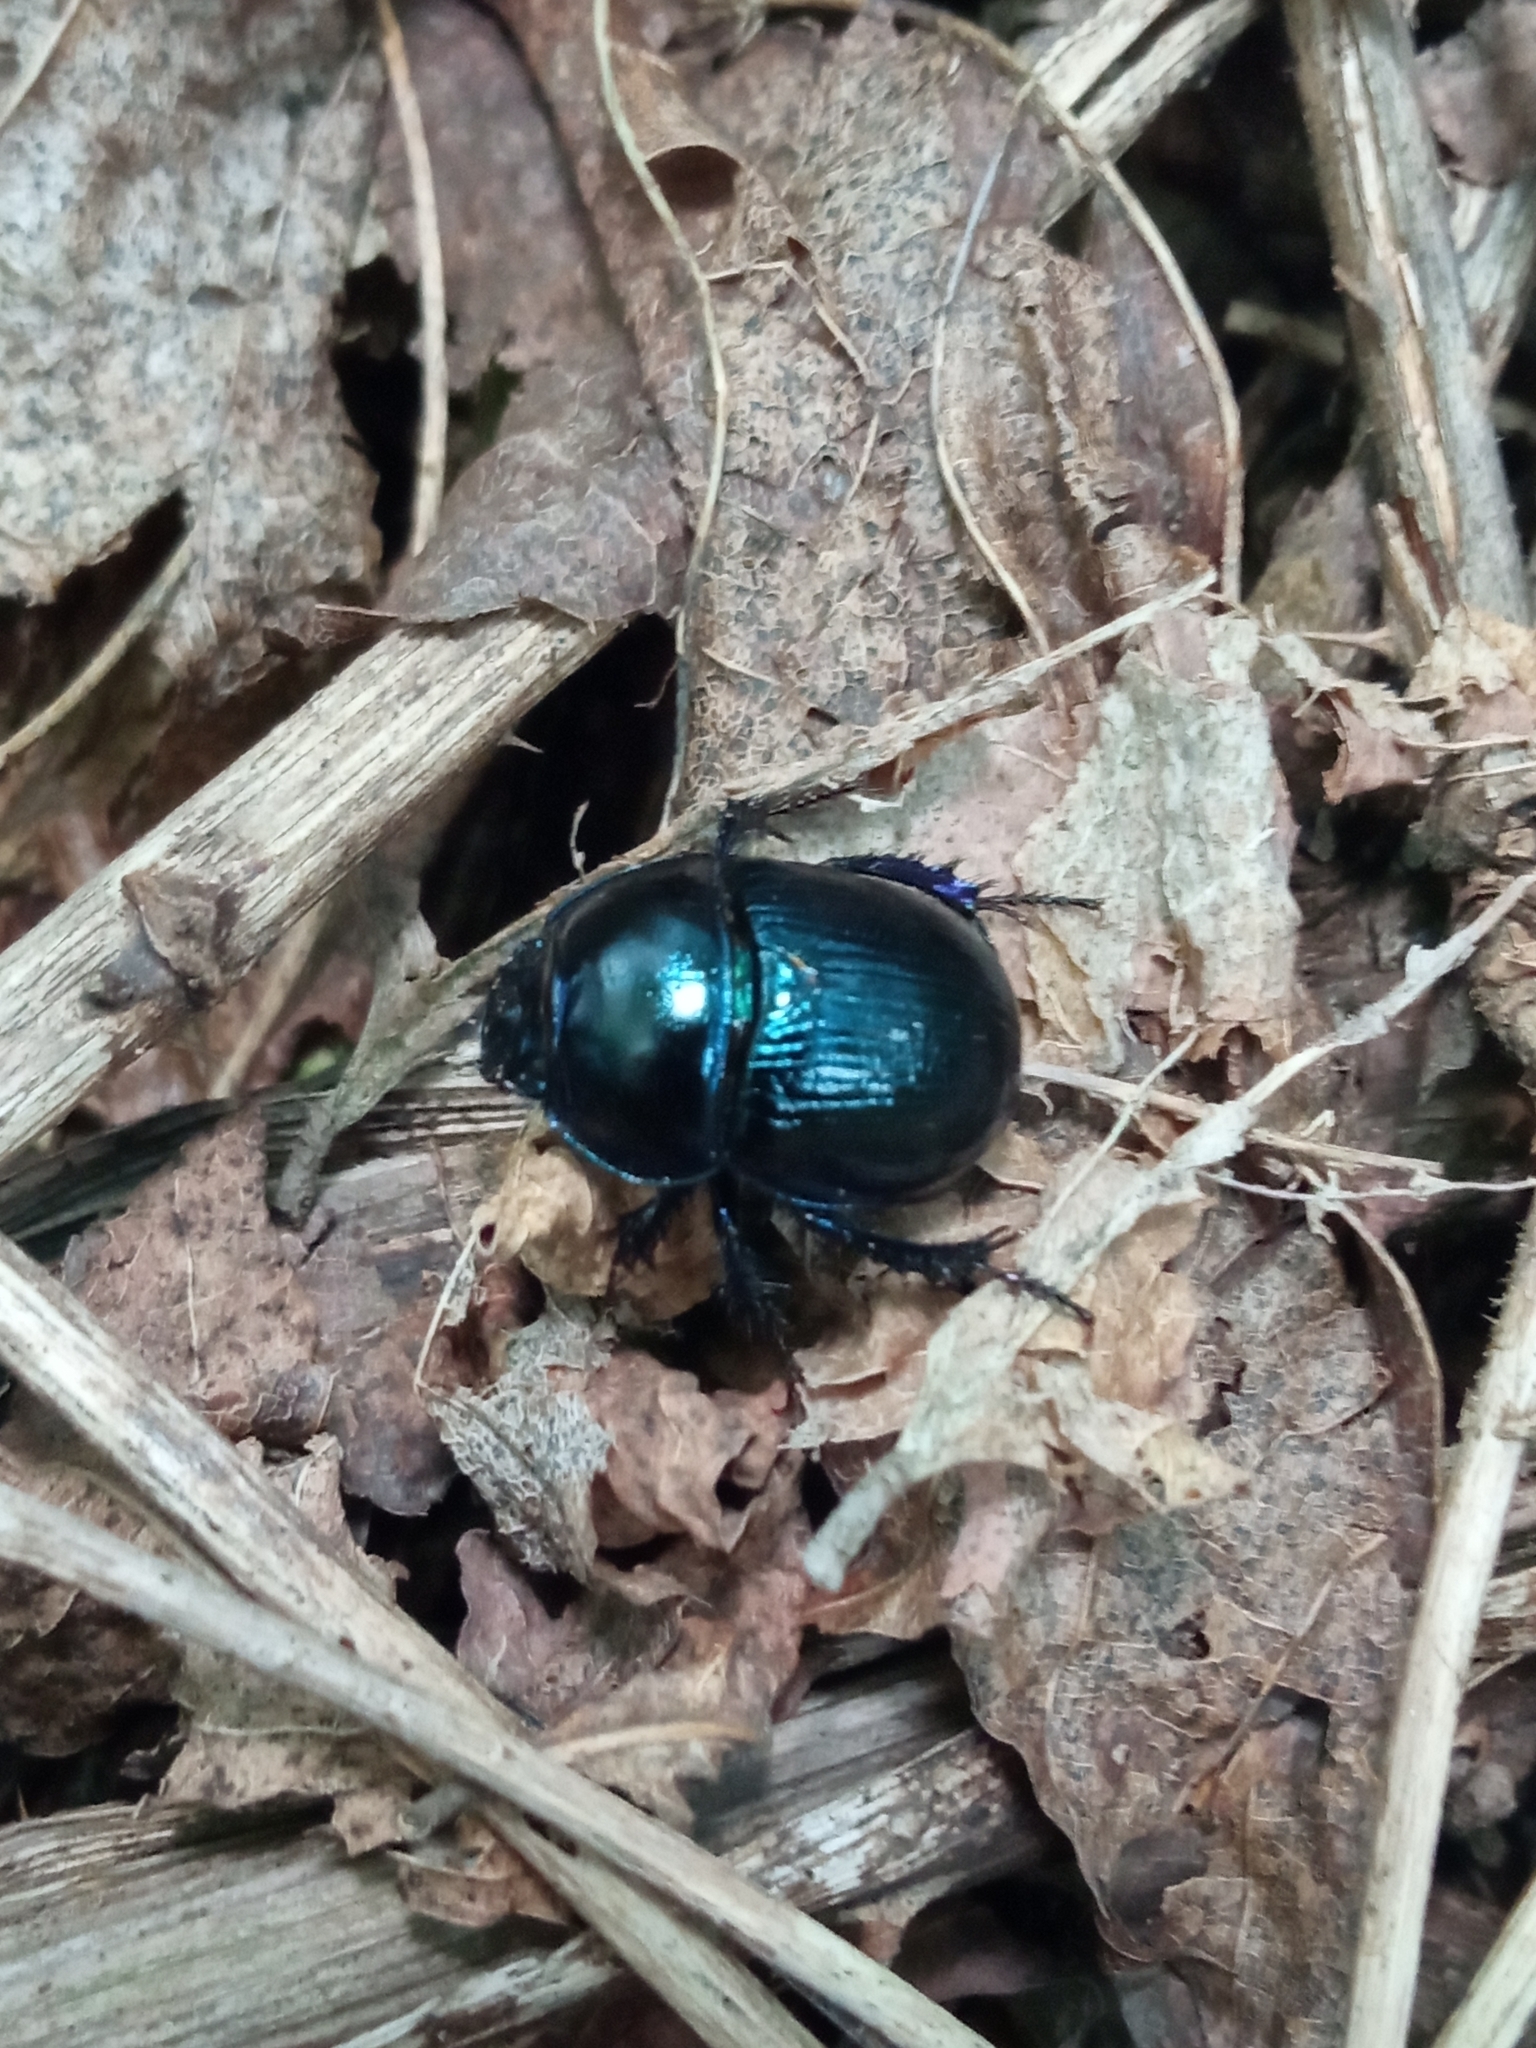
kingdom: Animalia
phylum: Arthropoda
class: Insecta
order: Coleoptera
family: Geotrupidae
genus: Anoplotrupes
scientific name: Anoplotrupes stercorosus
